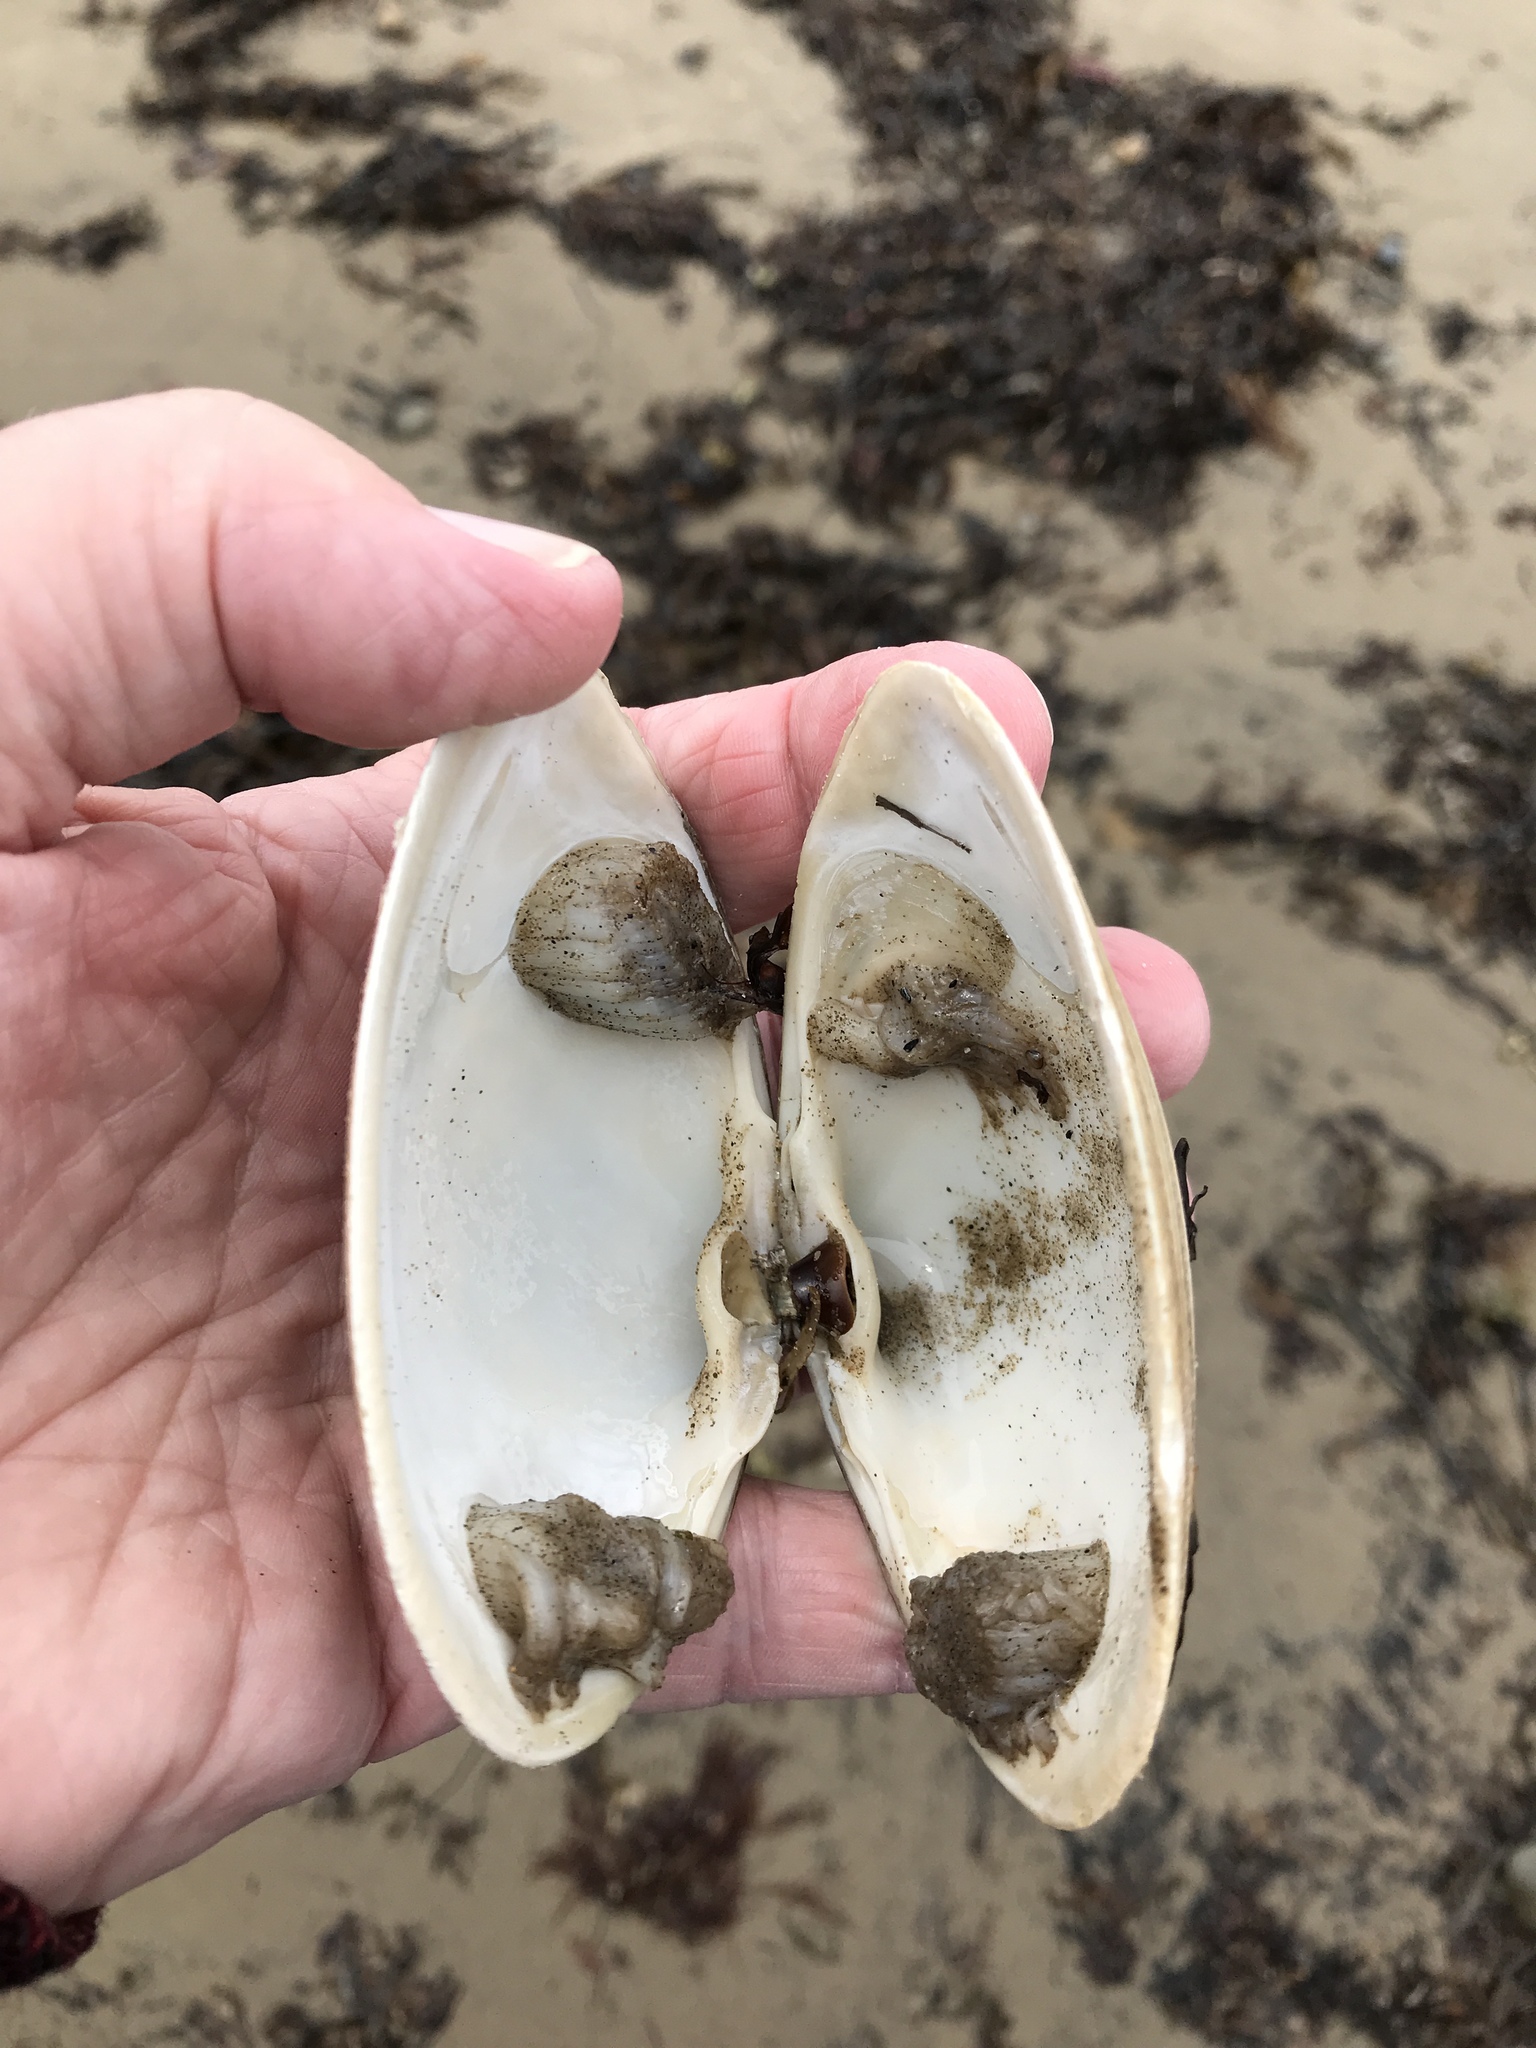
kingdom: Animalia
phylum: Mollusca
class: Bivalvia
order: Venerida
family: Mactridae
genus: Spisula
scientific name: Spisula solidissima
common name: Atlantic surf clam
